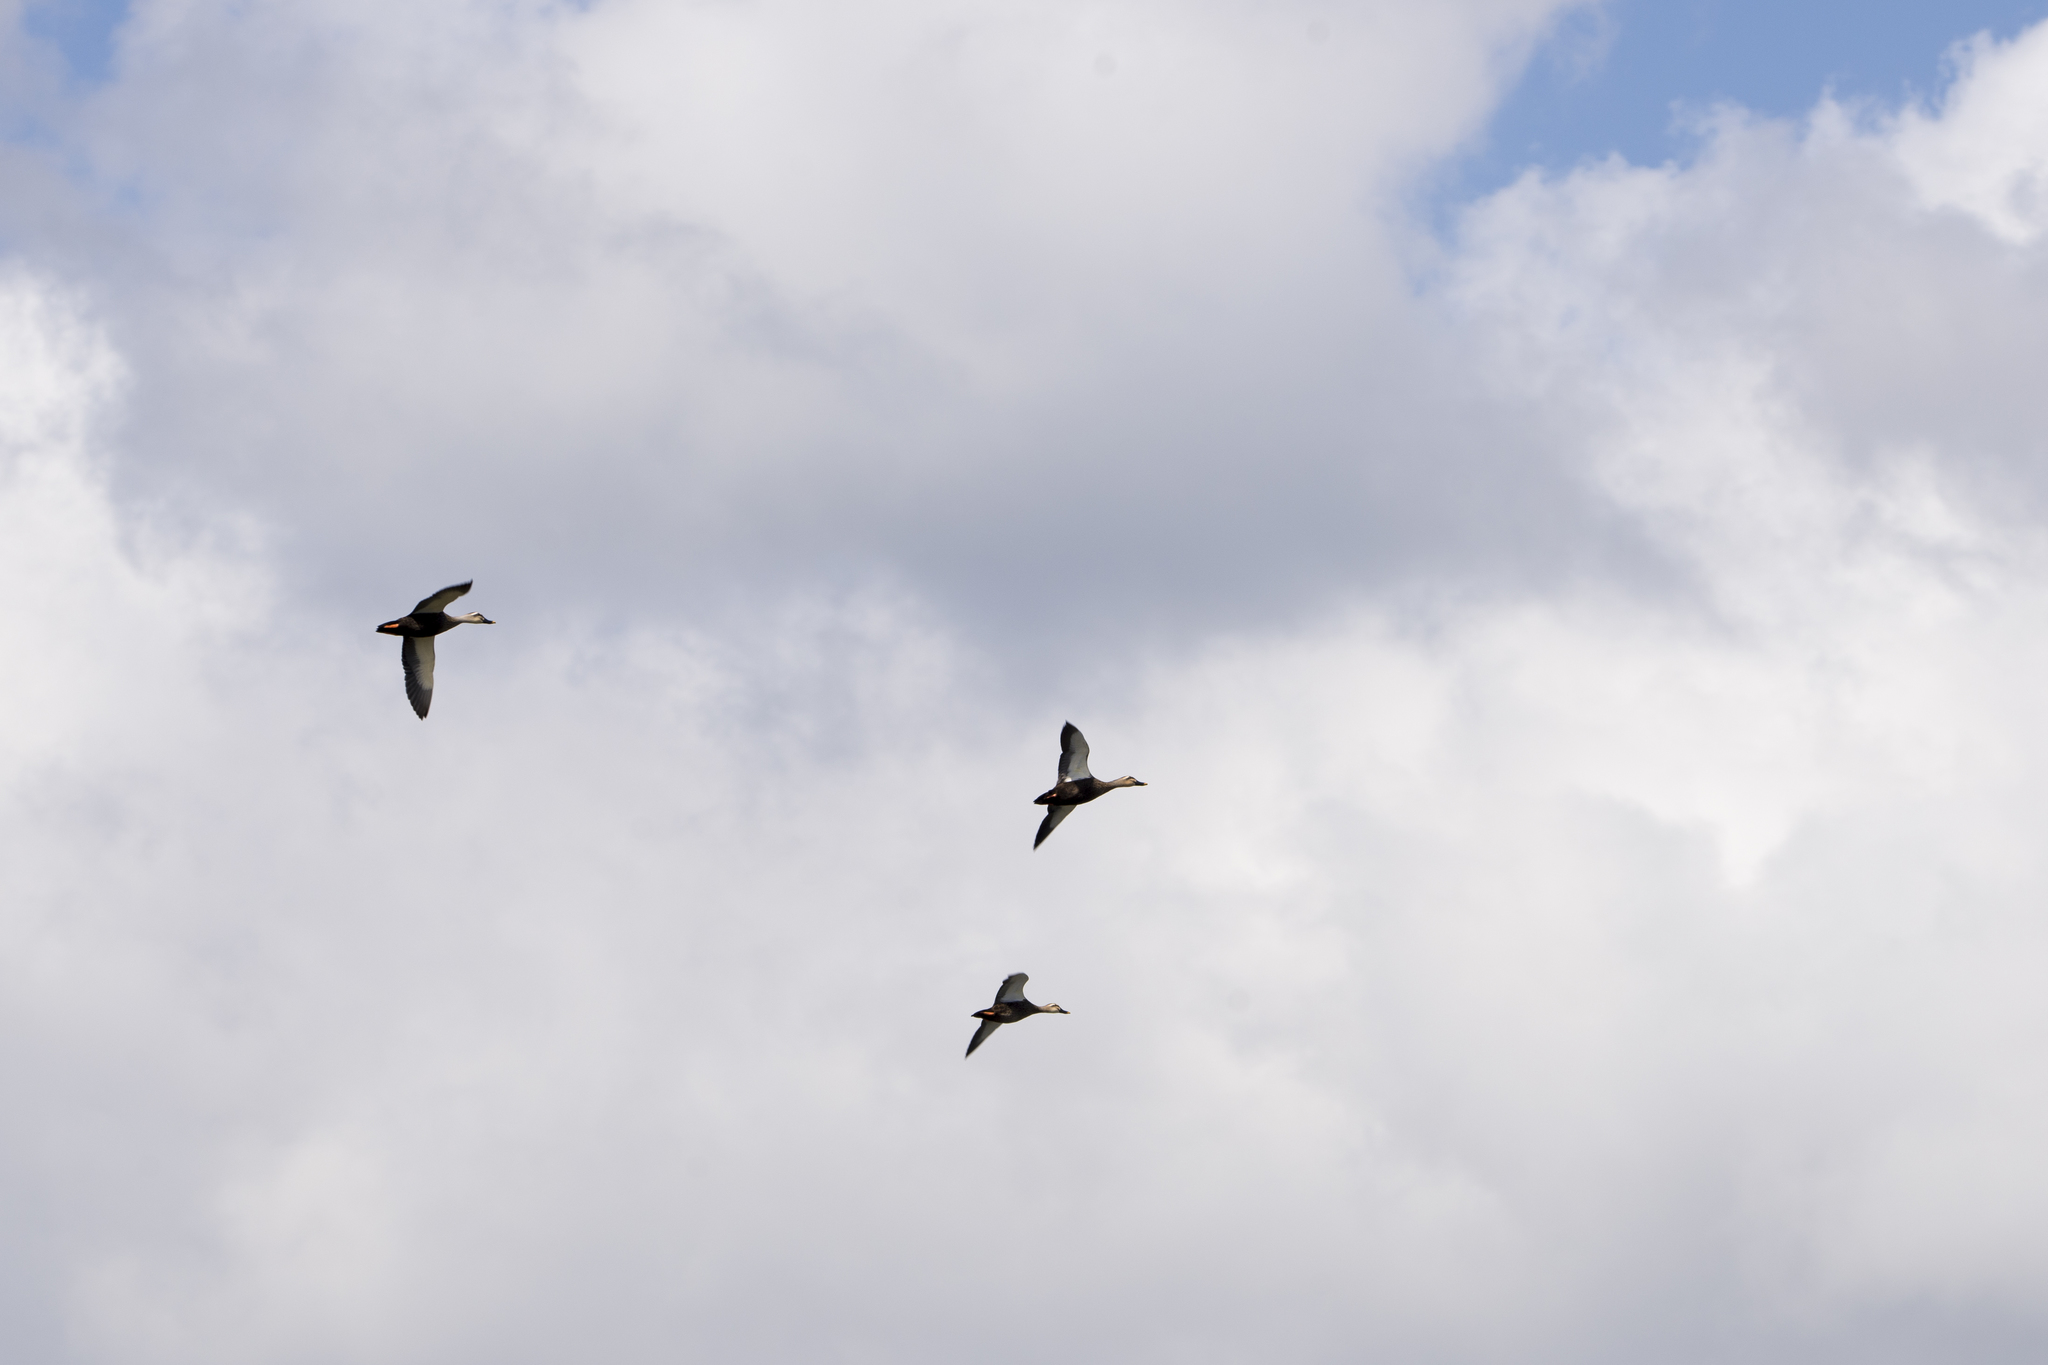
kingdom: Animalia
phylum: Chordata
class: Aves
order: Anseriformes
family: Anatidae
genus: Anas
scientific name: Anas zonorhyncha
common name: Eastern spot-billed duck
